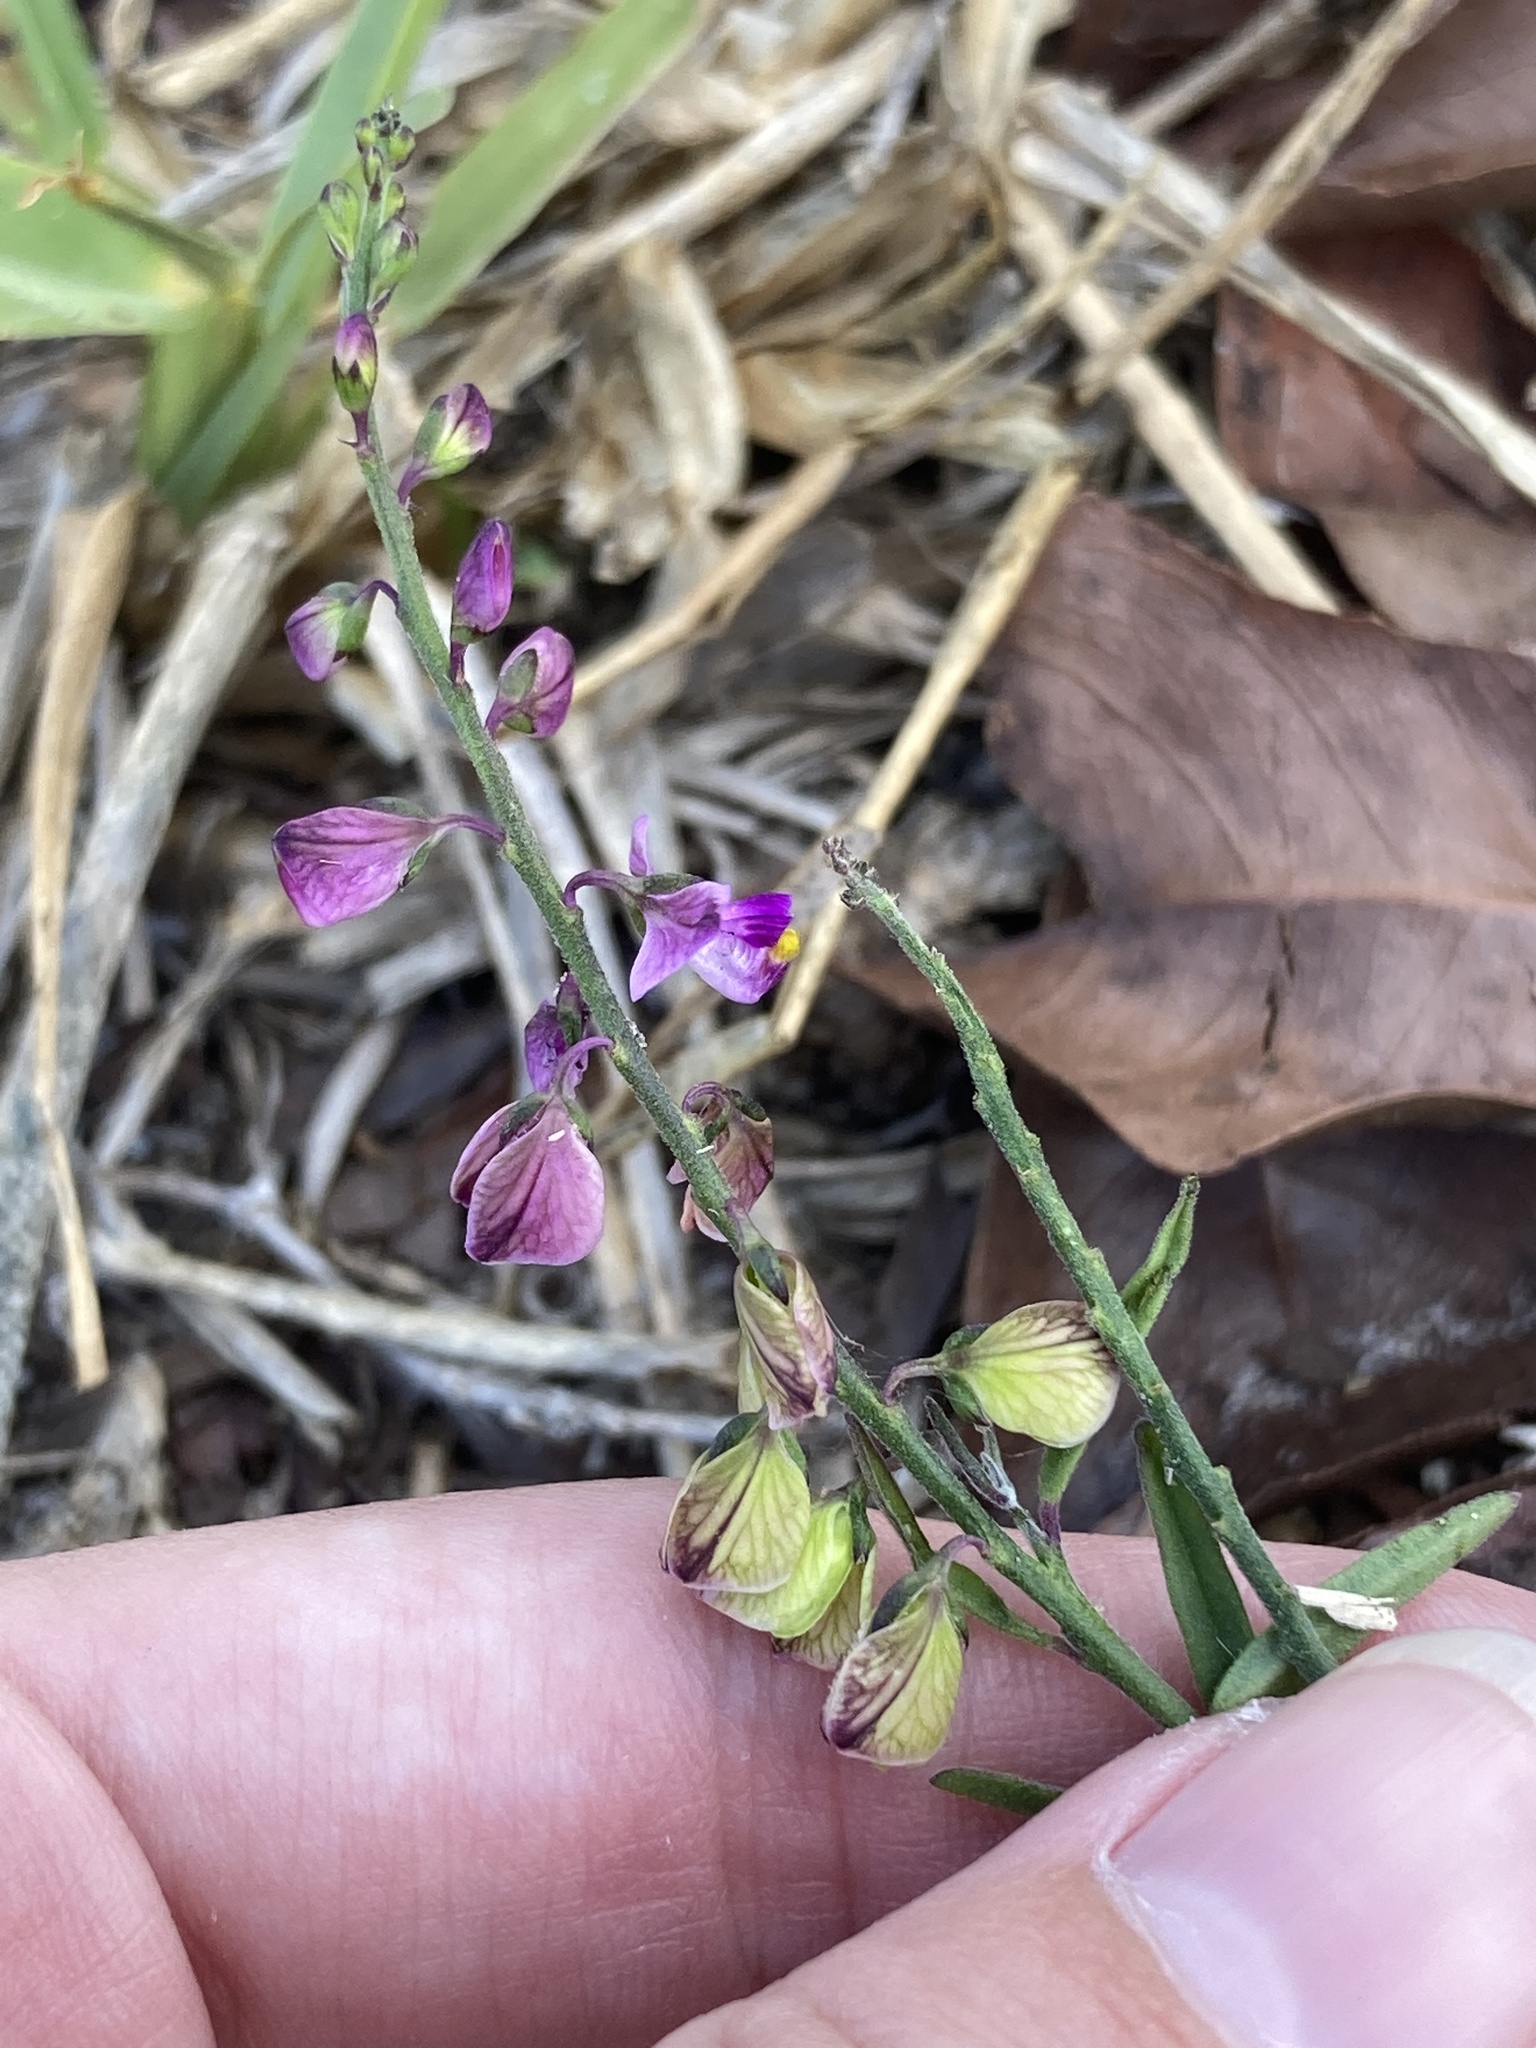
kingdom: Plantae
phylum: Tracheophyta
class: Magnoliopsida
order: Fabales
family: Polygalaceae
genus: Asemeia
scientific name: Asemeia grandiflora
